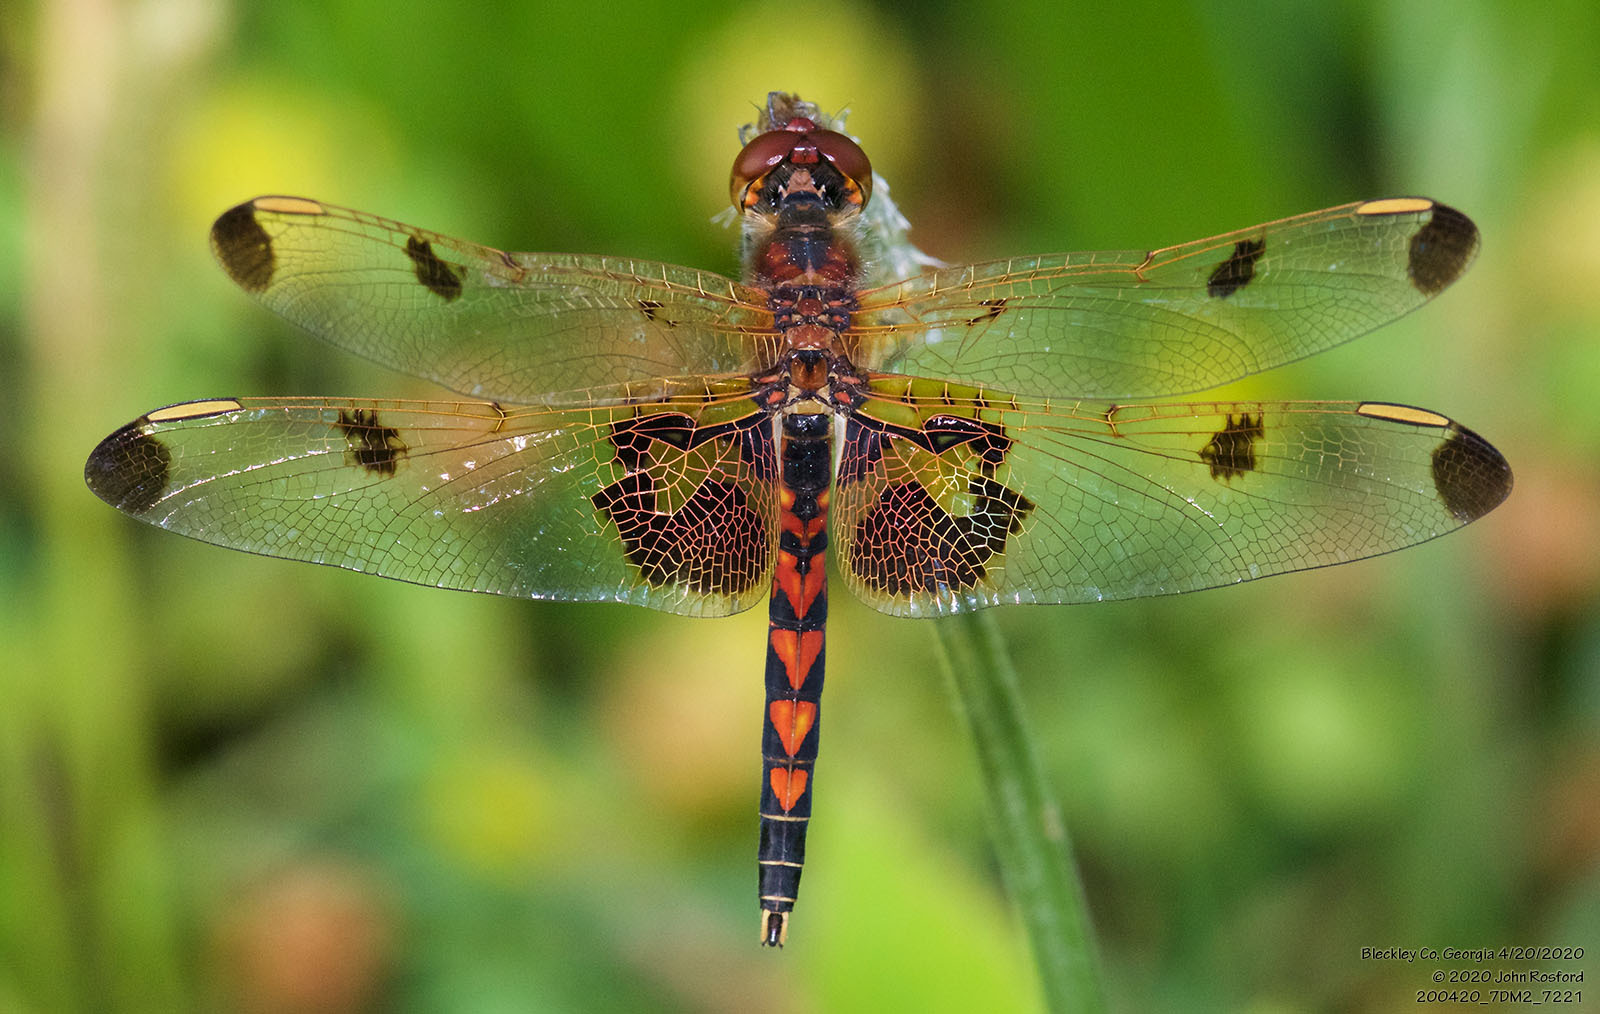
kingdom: Animalia
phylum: Arthropoda
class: Insecta
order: Odonata
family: Libellulidae
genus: Celithemis
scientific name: Celithemis elisa
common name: Calico pennant
